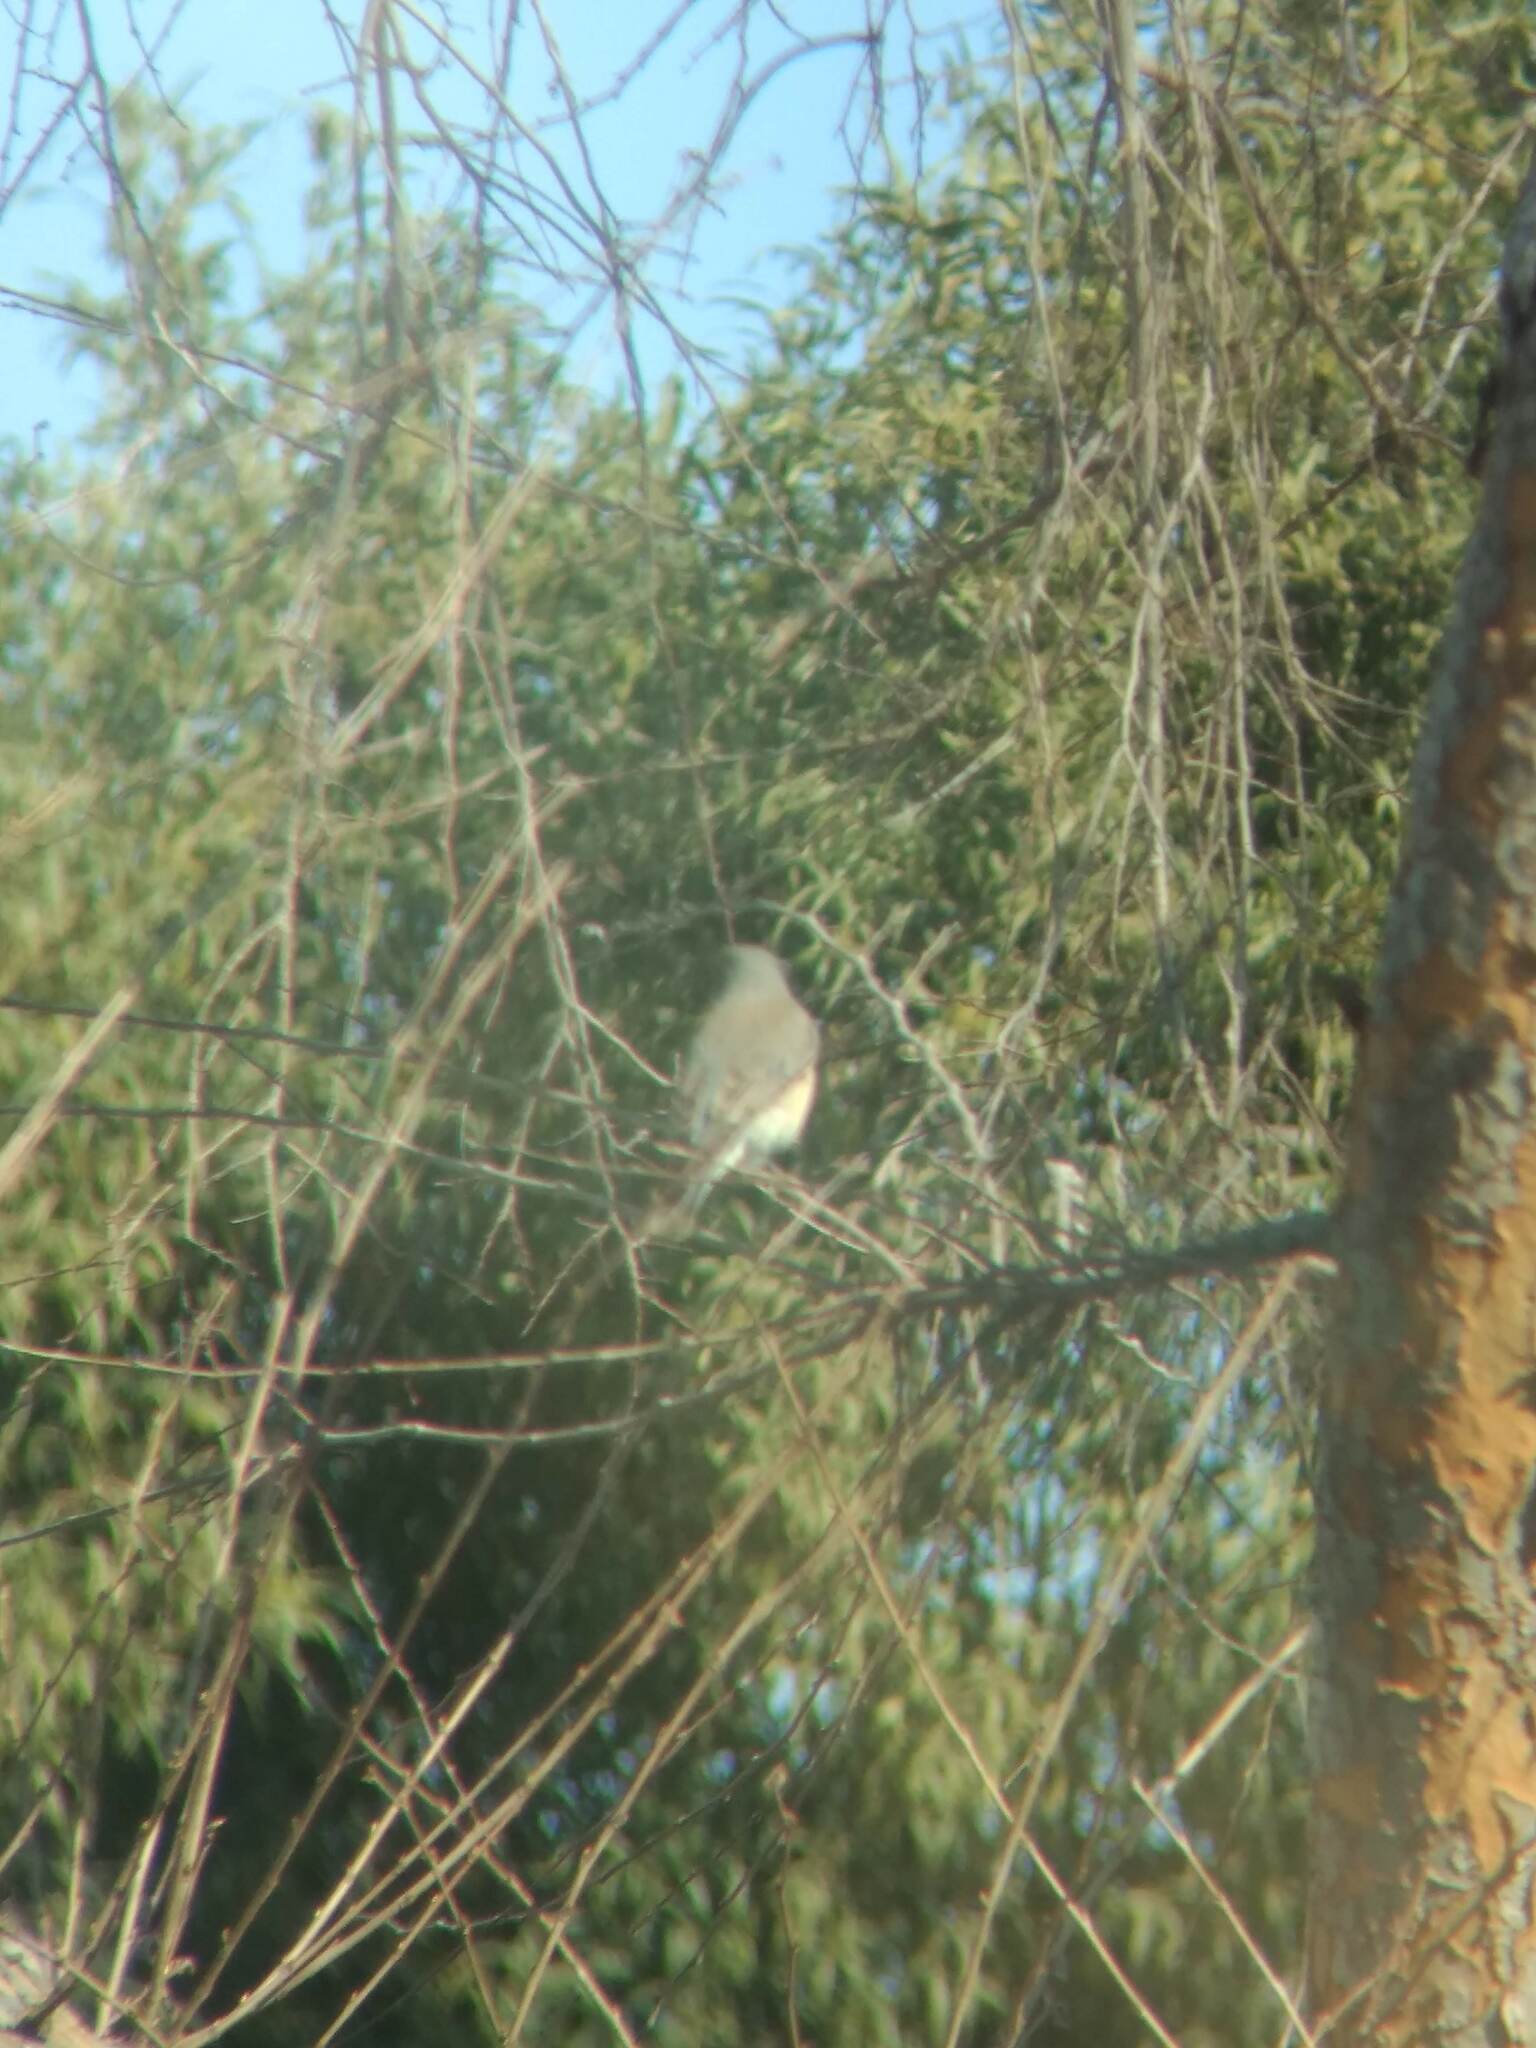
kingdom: Animalia
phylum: Chordata
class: Aves
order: Passeriformes
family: Turdidae
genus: Sialia
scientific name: Sialia mexicana
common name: Western bluebird
